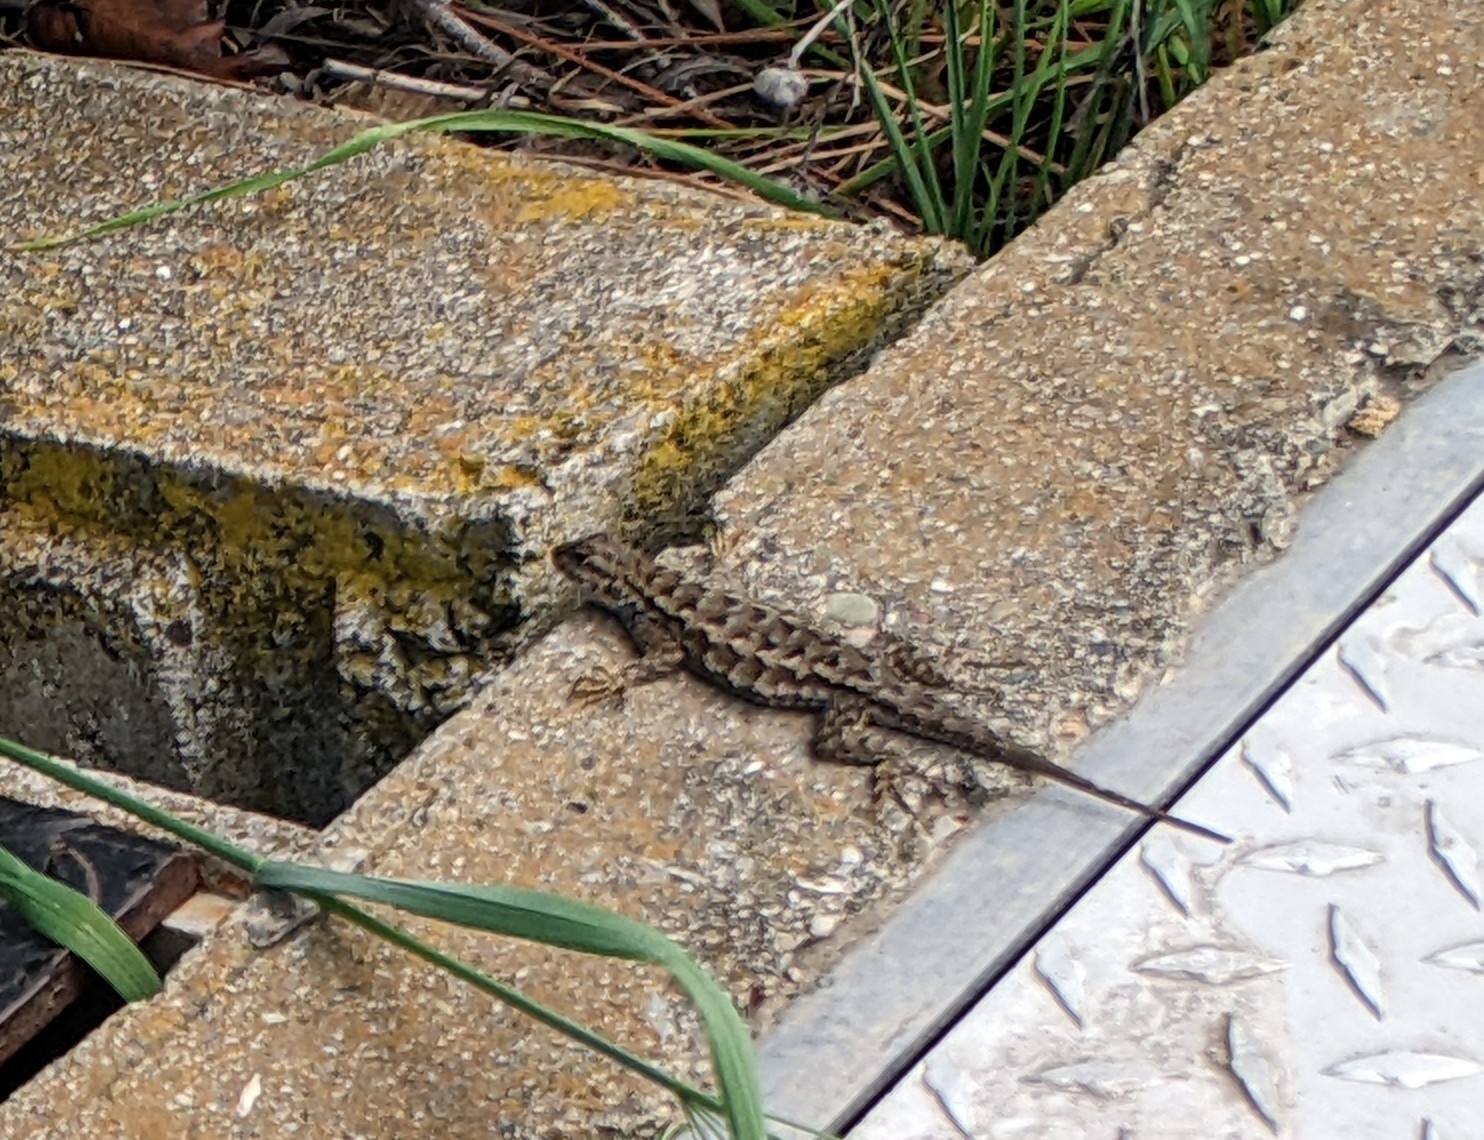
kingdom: Animalia
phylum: Chordata
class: Squamata
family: Phrynosomatidae
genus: Sceloporus
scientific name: Sceloporus occidentalis
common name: Western fence lizard
